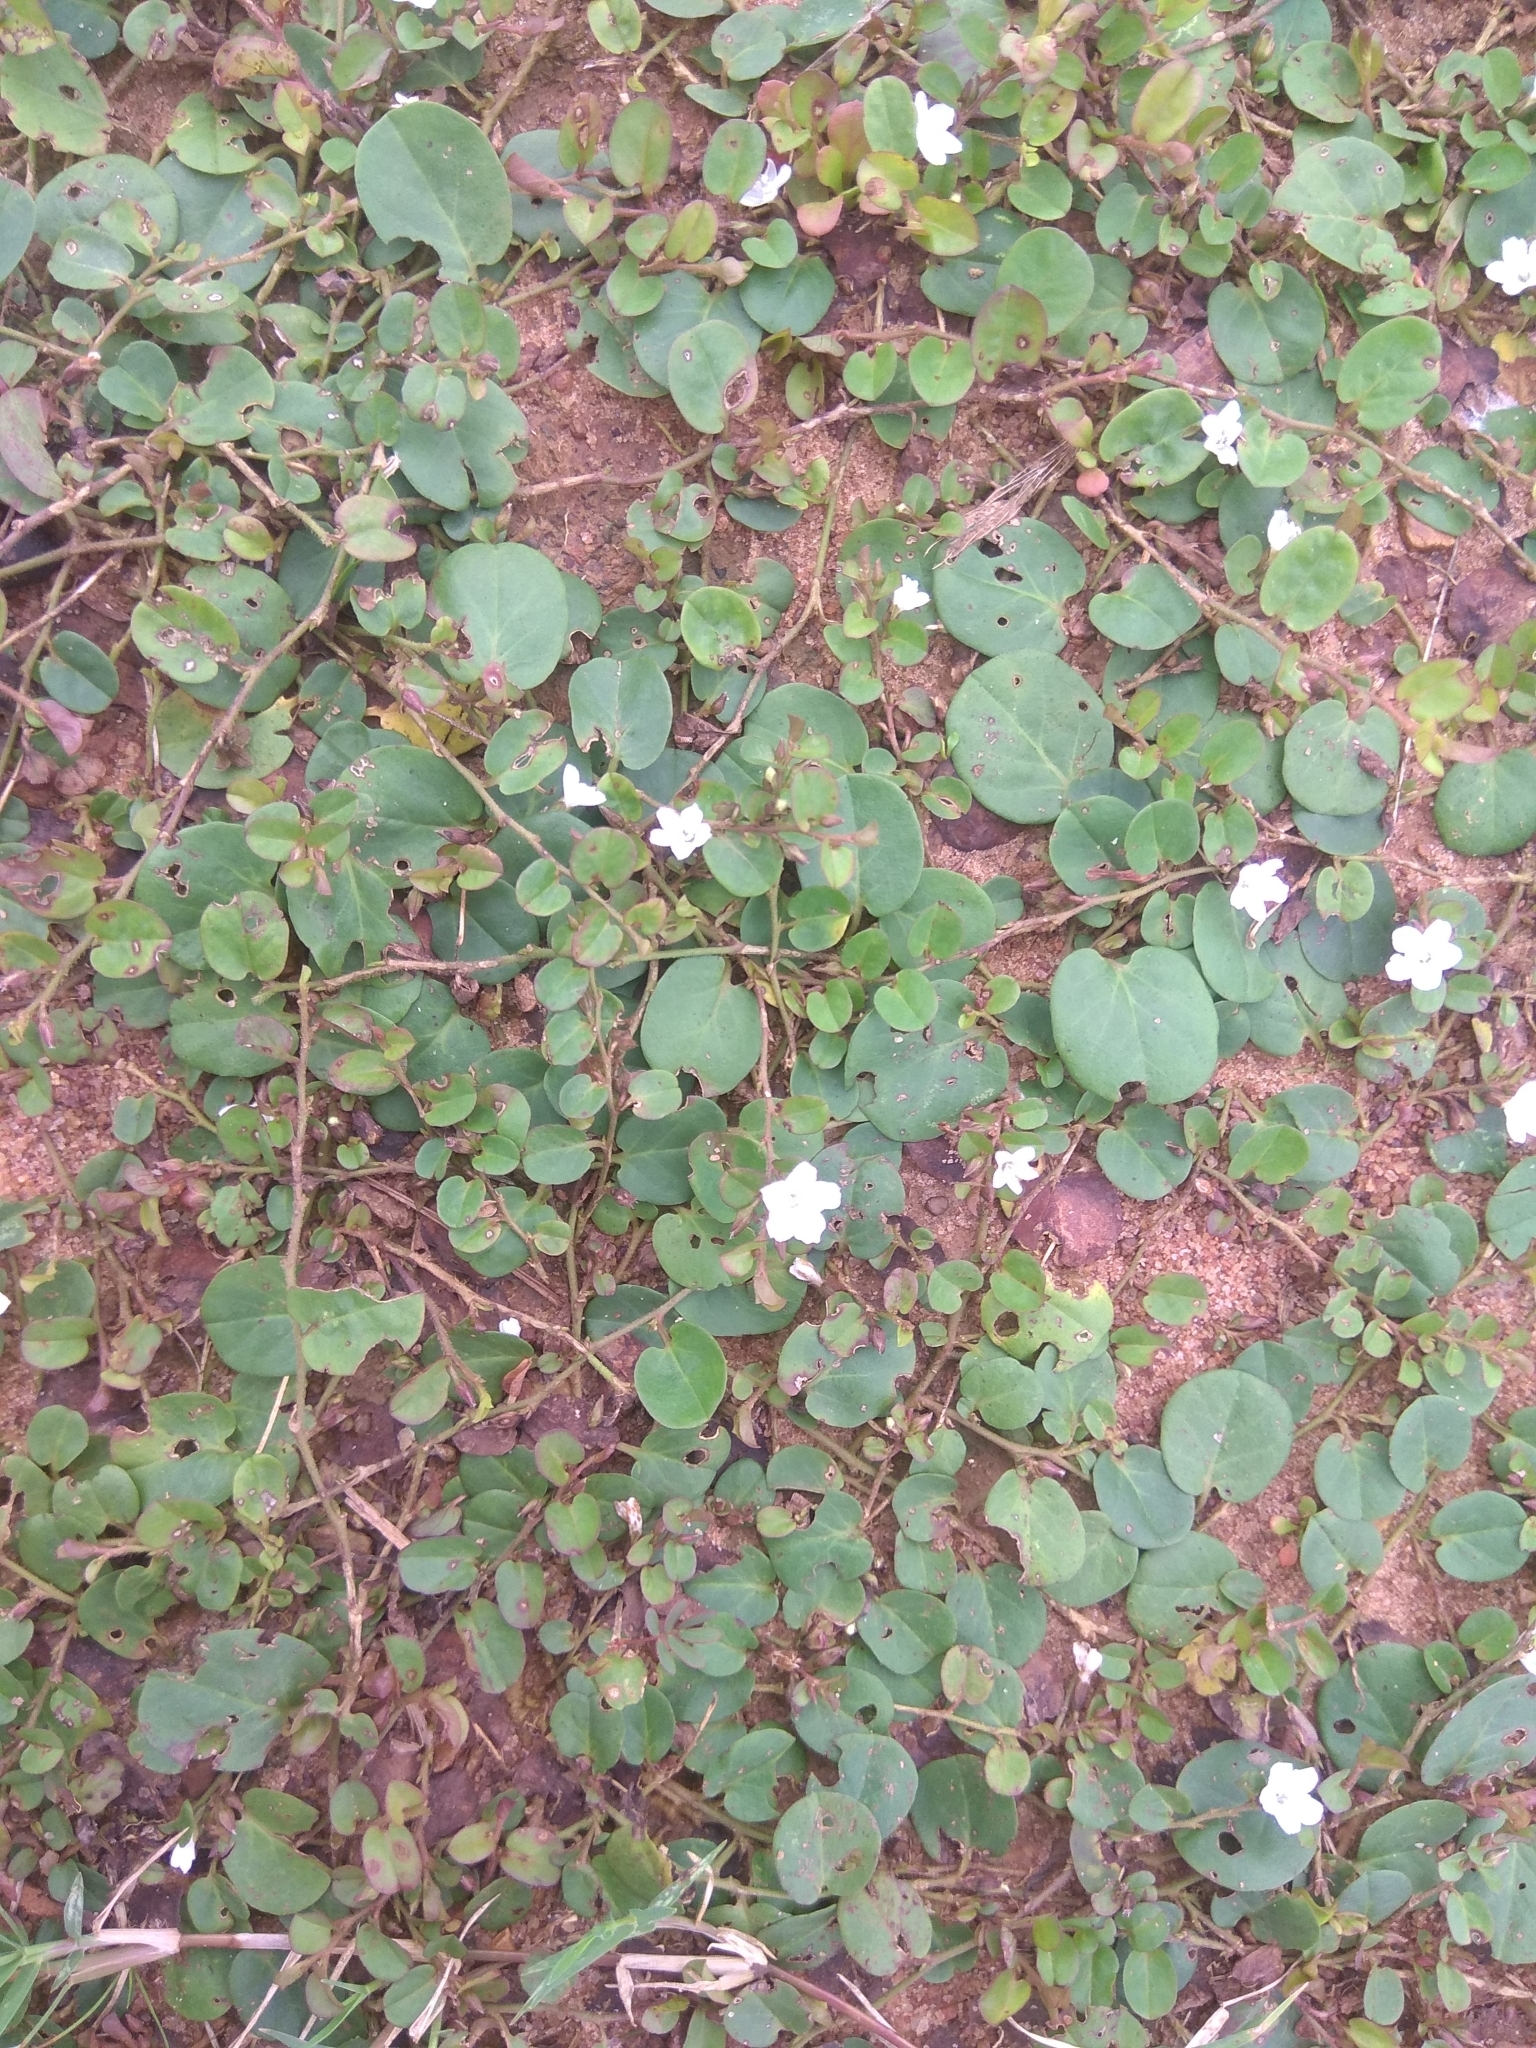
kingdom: Plantae
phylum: Tracheophyta
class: Magnoliopsida
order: Solanales
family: Convolvulaceae
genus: Evolvulus
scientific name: Evolvulus nummularius
